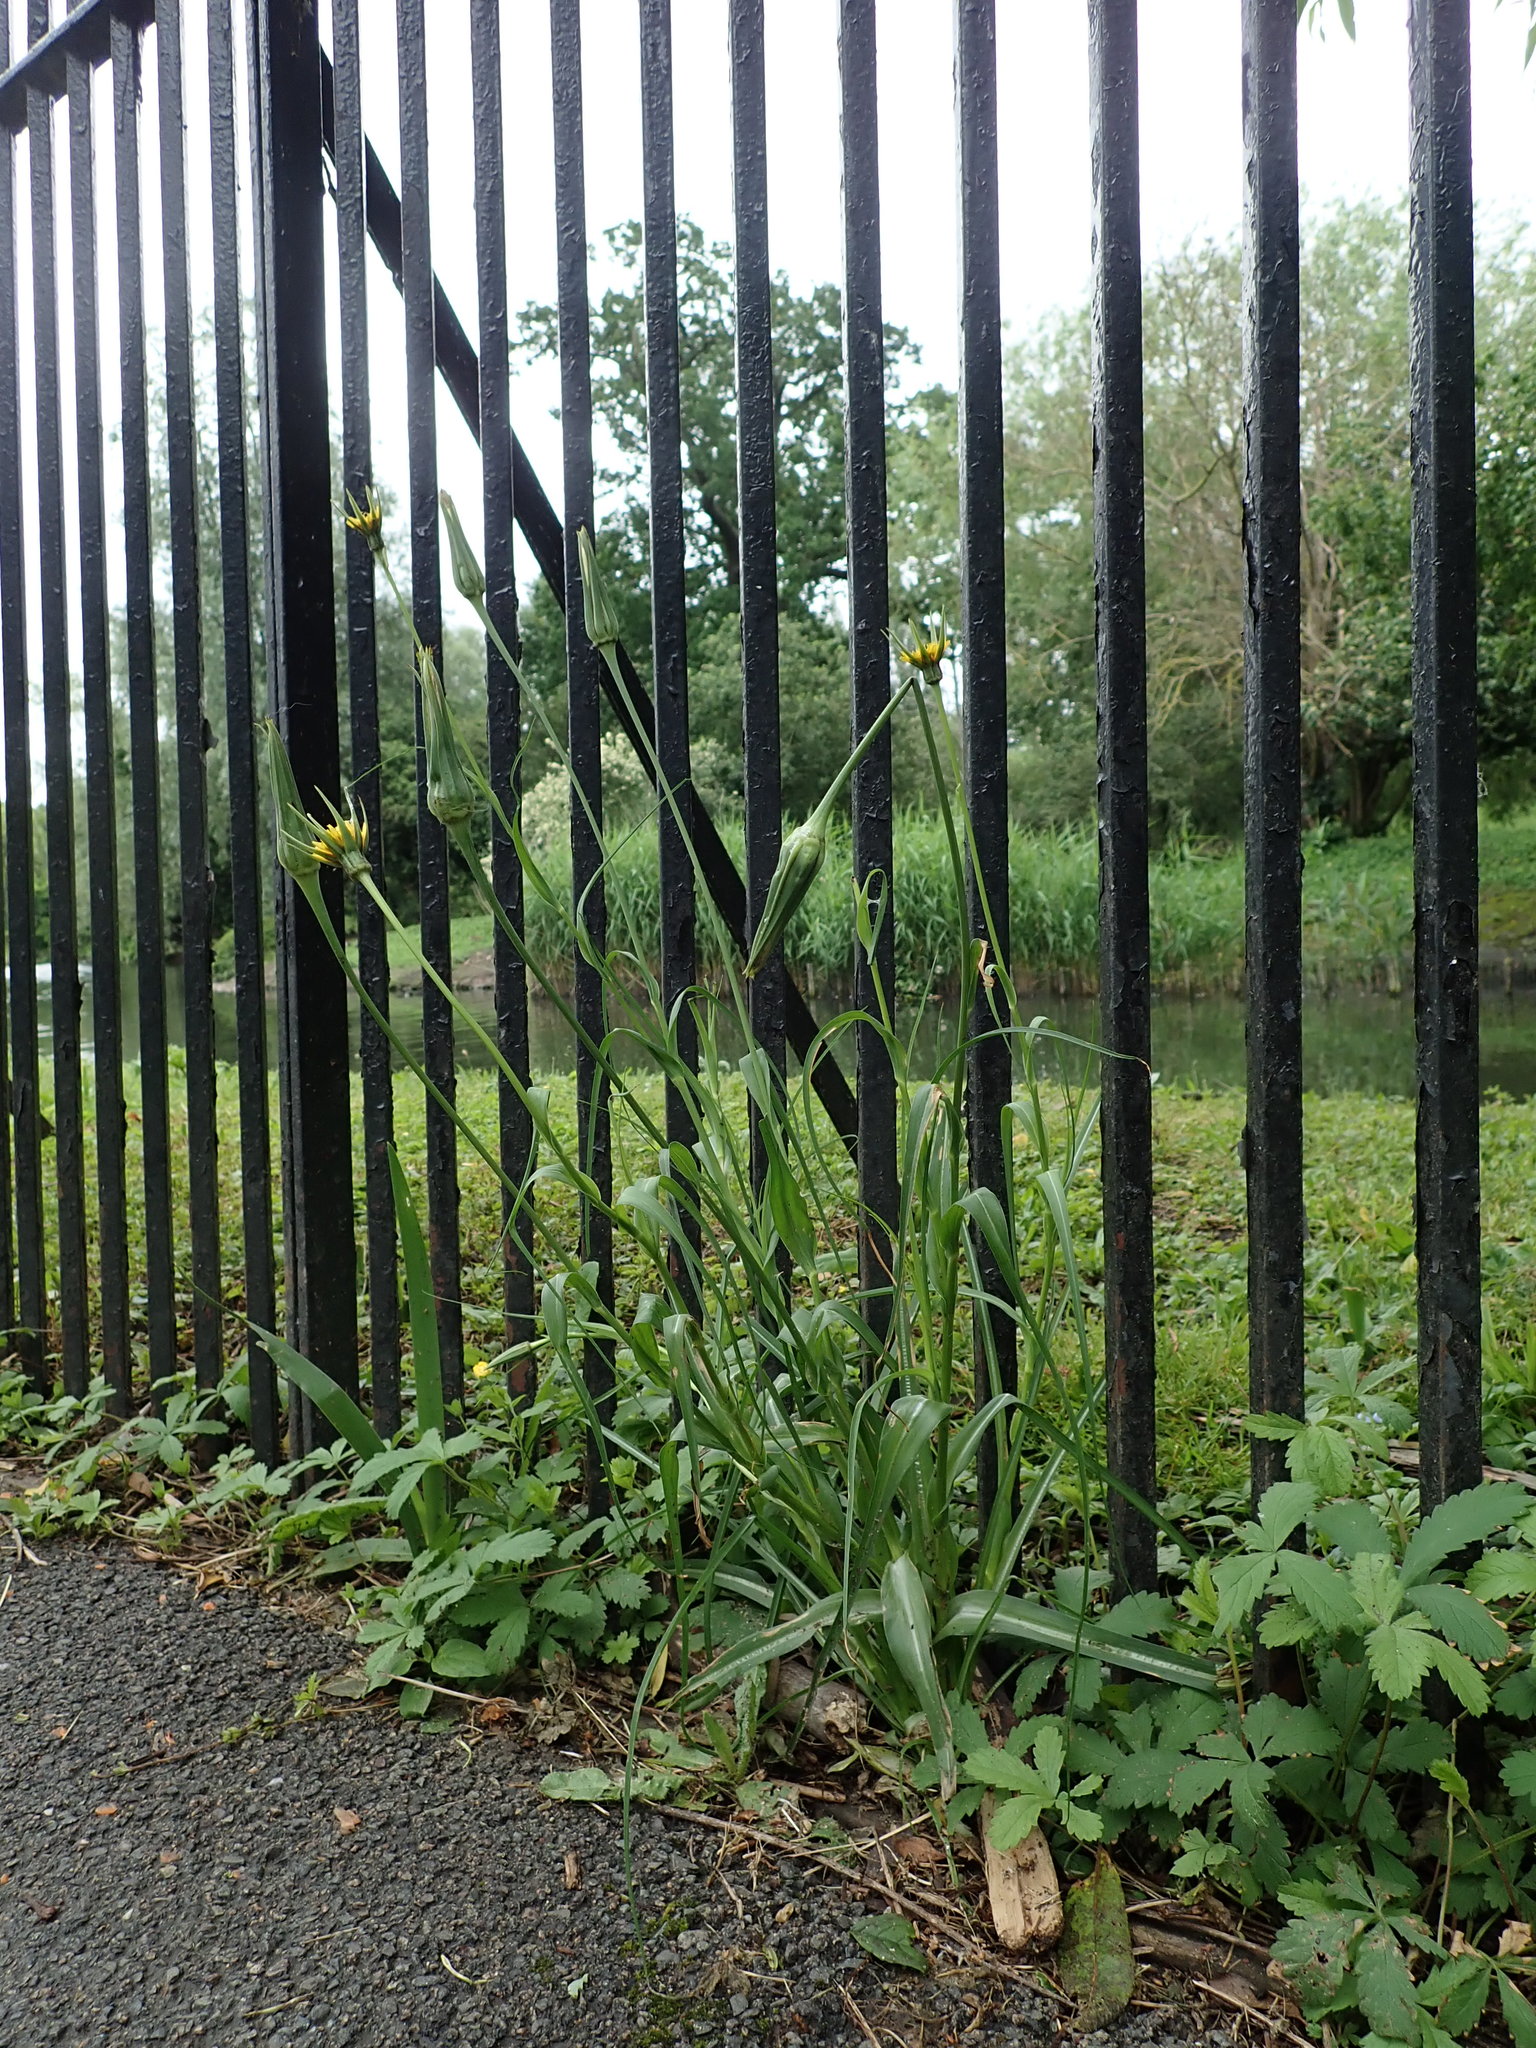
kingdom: Plantae
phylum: Tracheophyta
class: Magnoliopsida
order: Asterales
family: Asteraceae
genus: Tragopogon
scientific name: Tragopogon minor
